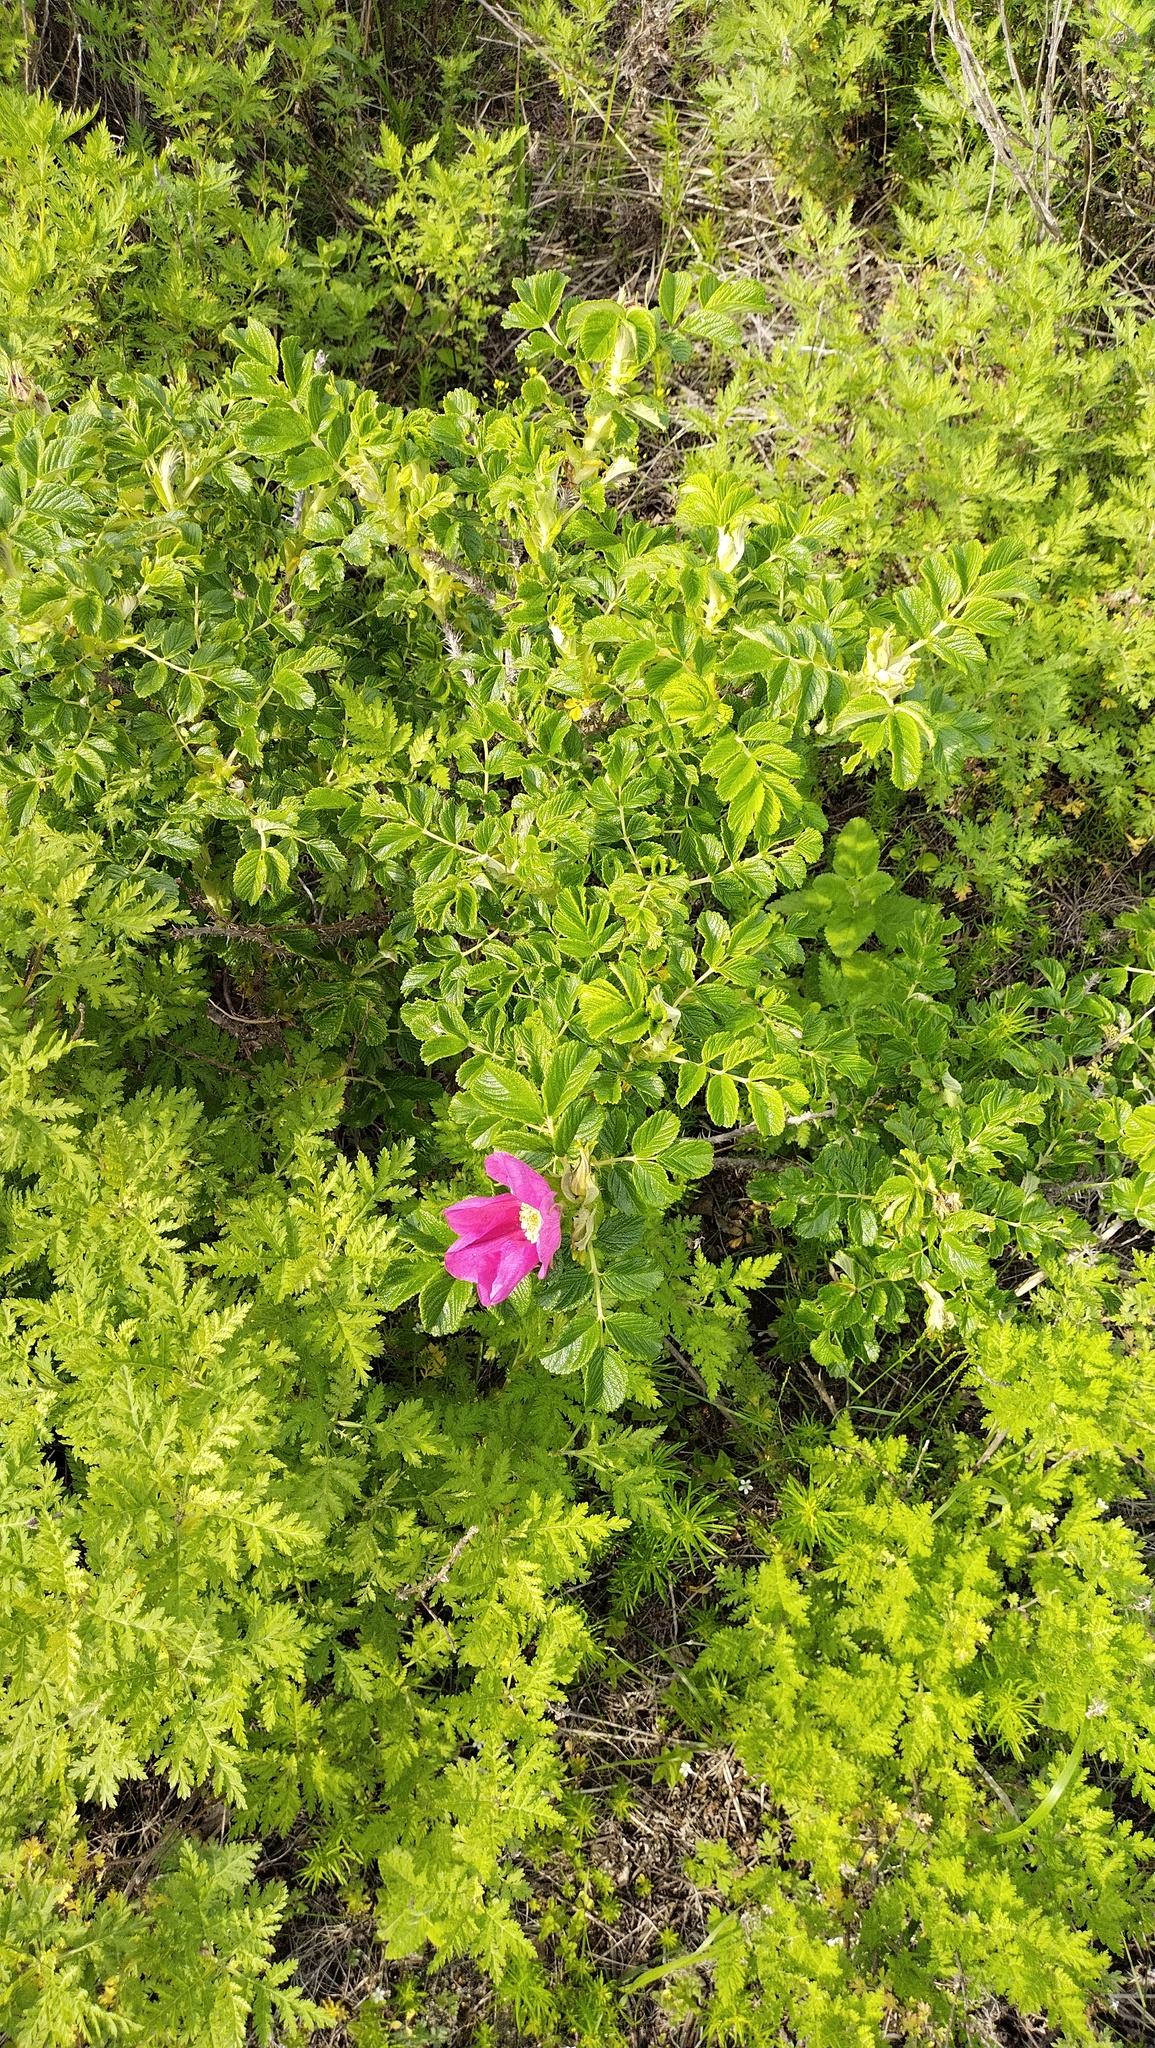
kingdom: Plantae
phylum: Tracheophyta
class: Magnoliopsida
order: Rosales
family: Rosaceae
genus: Rosa
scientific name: Rosa rugosa
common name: Japanese rose
